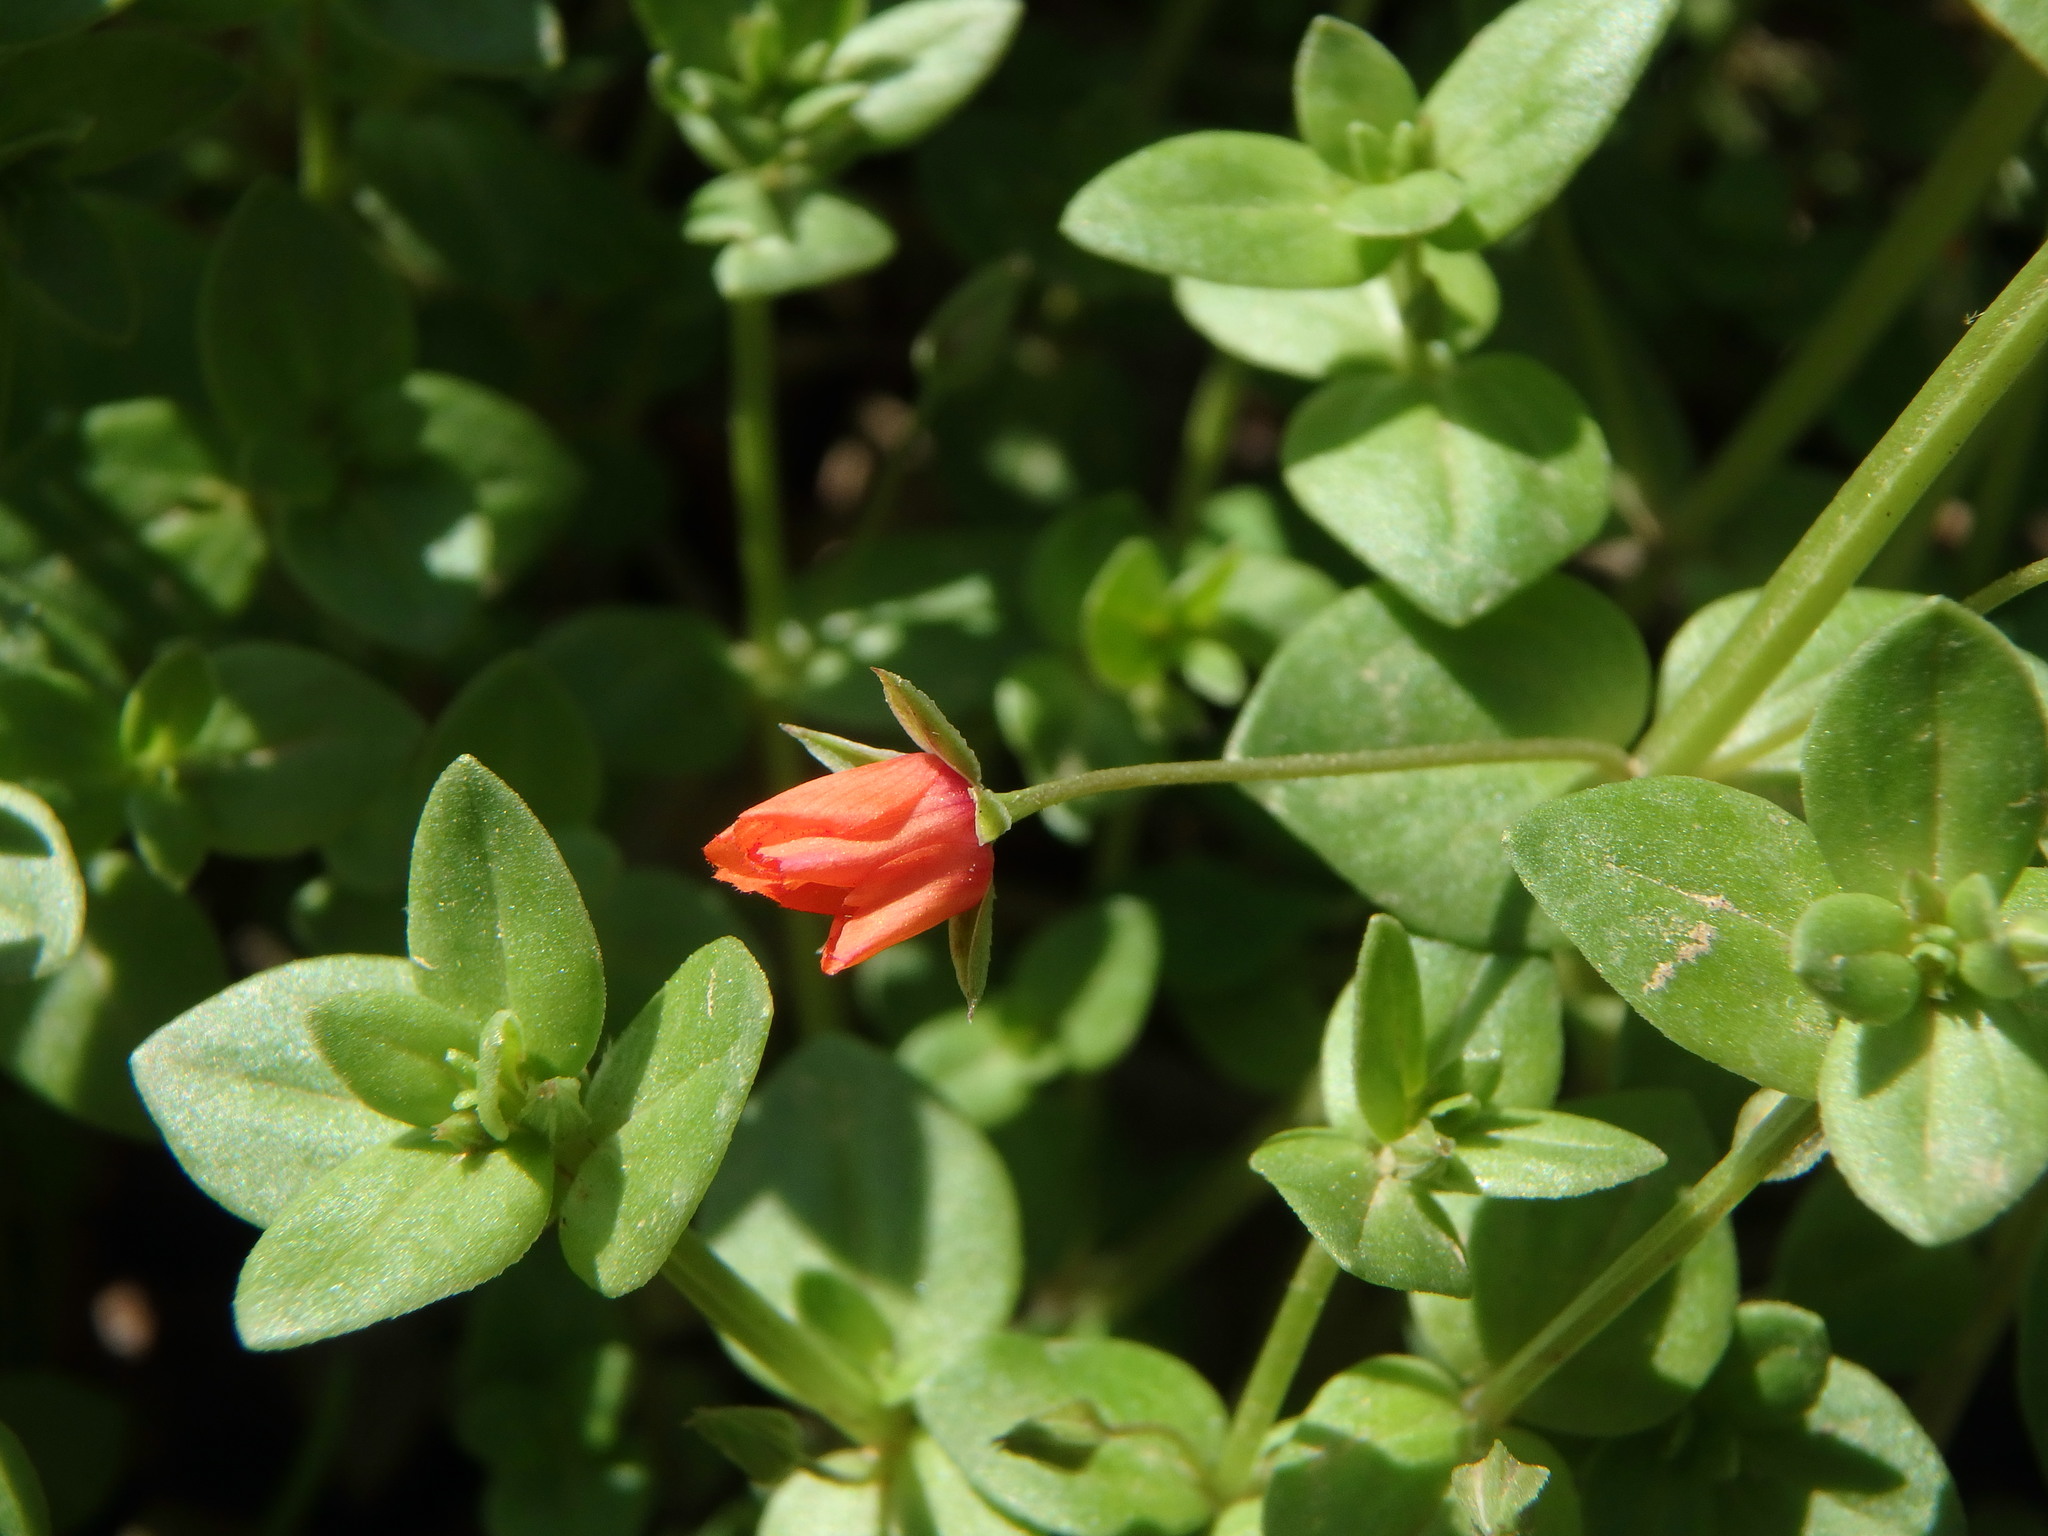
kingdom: Plantae
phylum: Tracheophyta
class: Magnoliopsida
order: Ericales
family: Primulaceae
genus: Lysimachia
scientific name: Lysimachia arvensis
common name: Scarlet pimpernel
